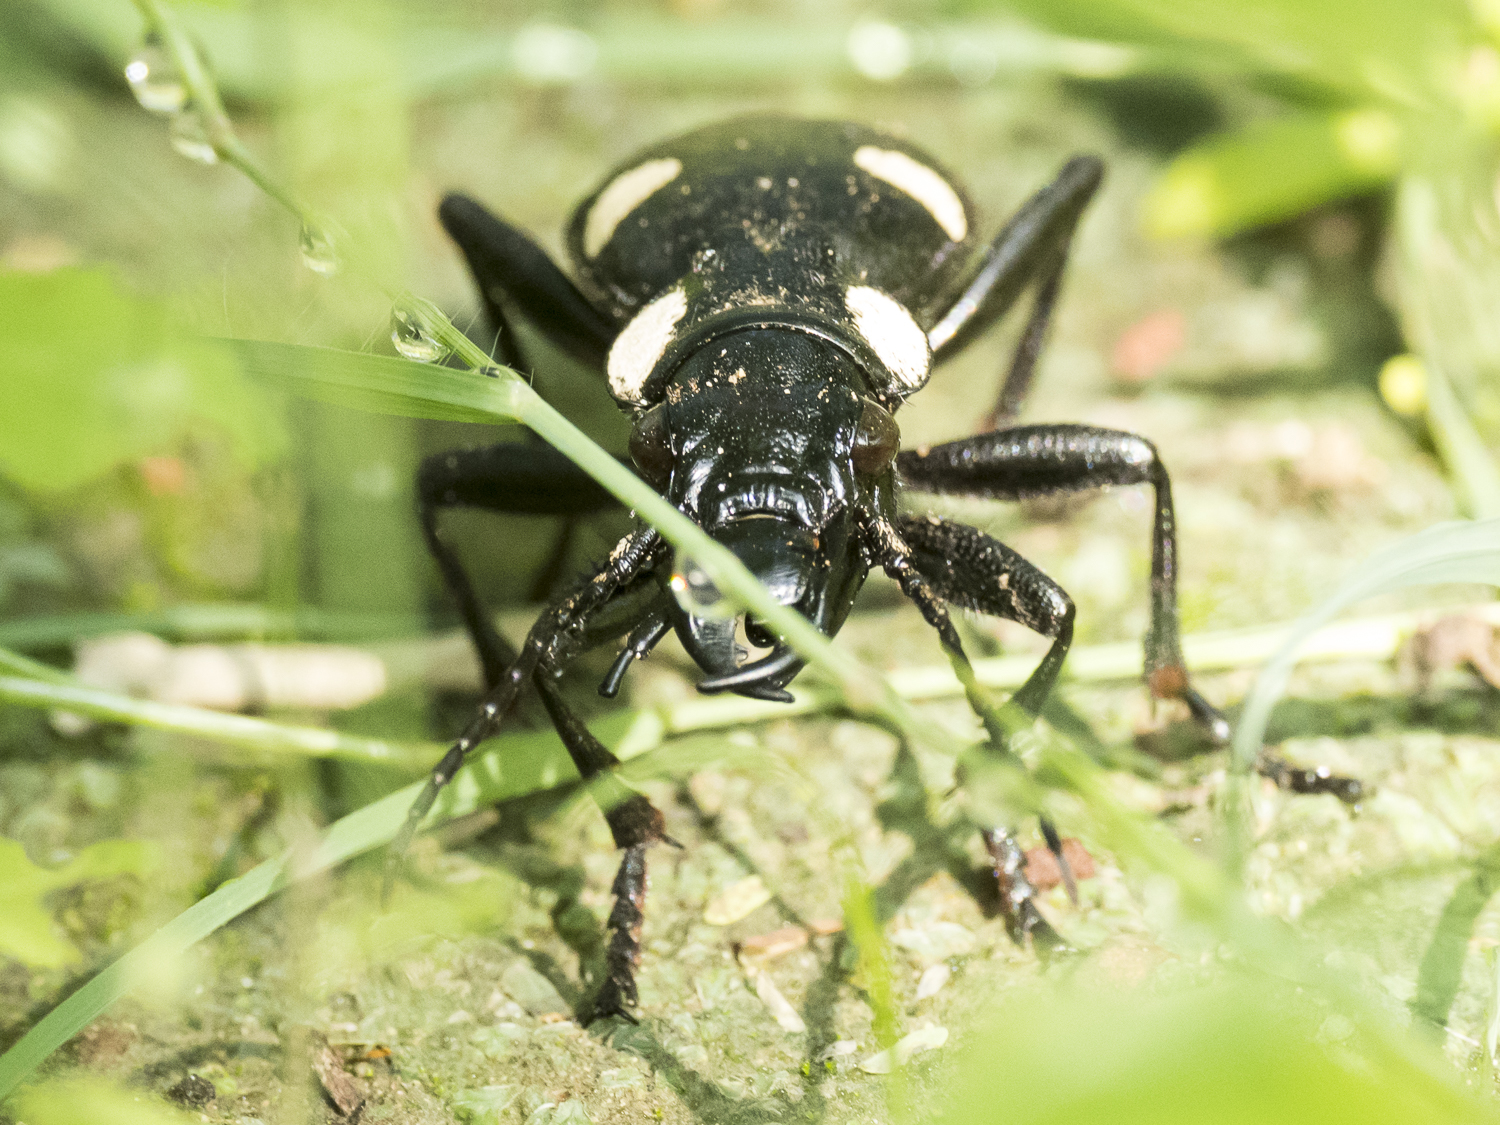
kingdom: Animalia
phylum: Arthropoda
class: Insecta
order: Coleoptera
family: Carabidae
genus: Anthia
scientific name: Anthia sexguttata
